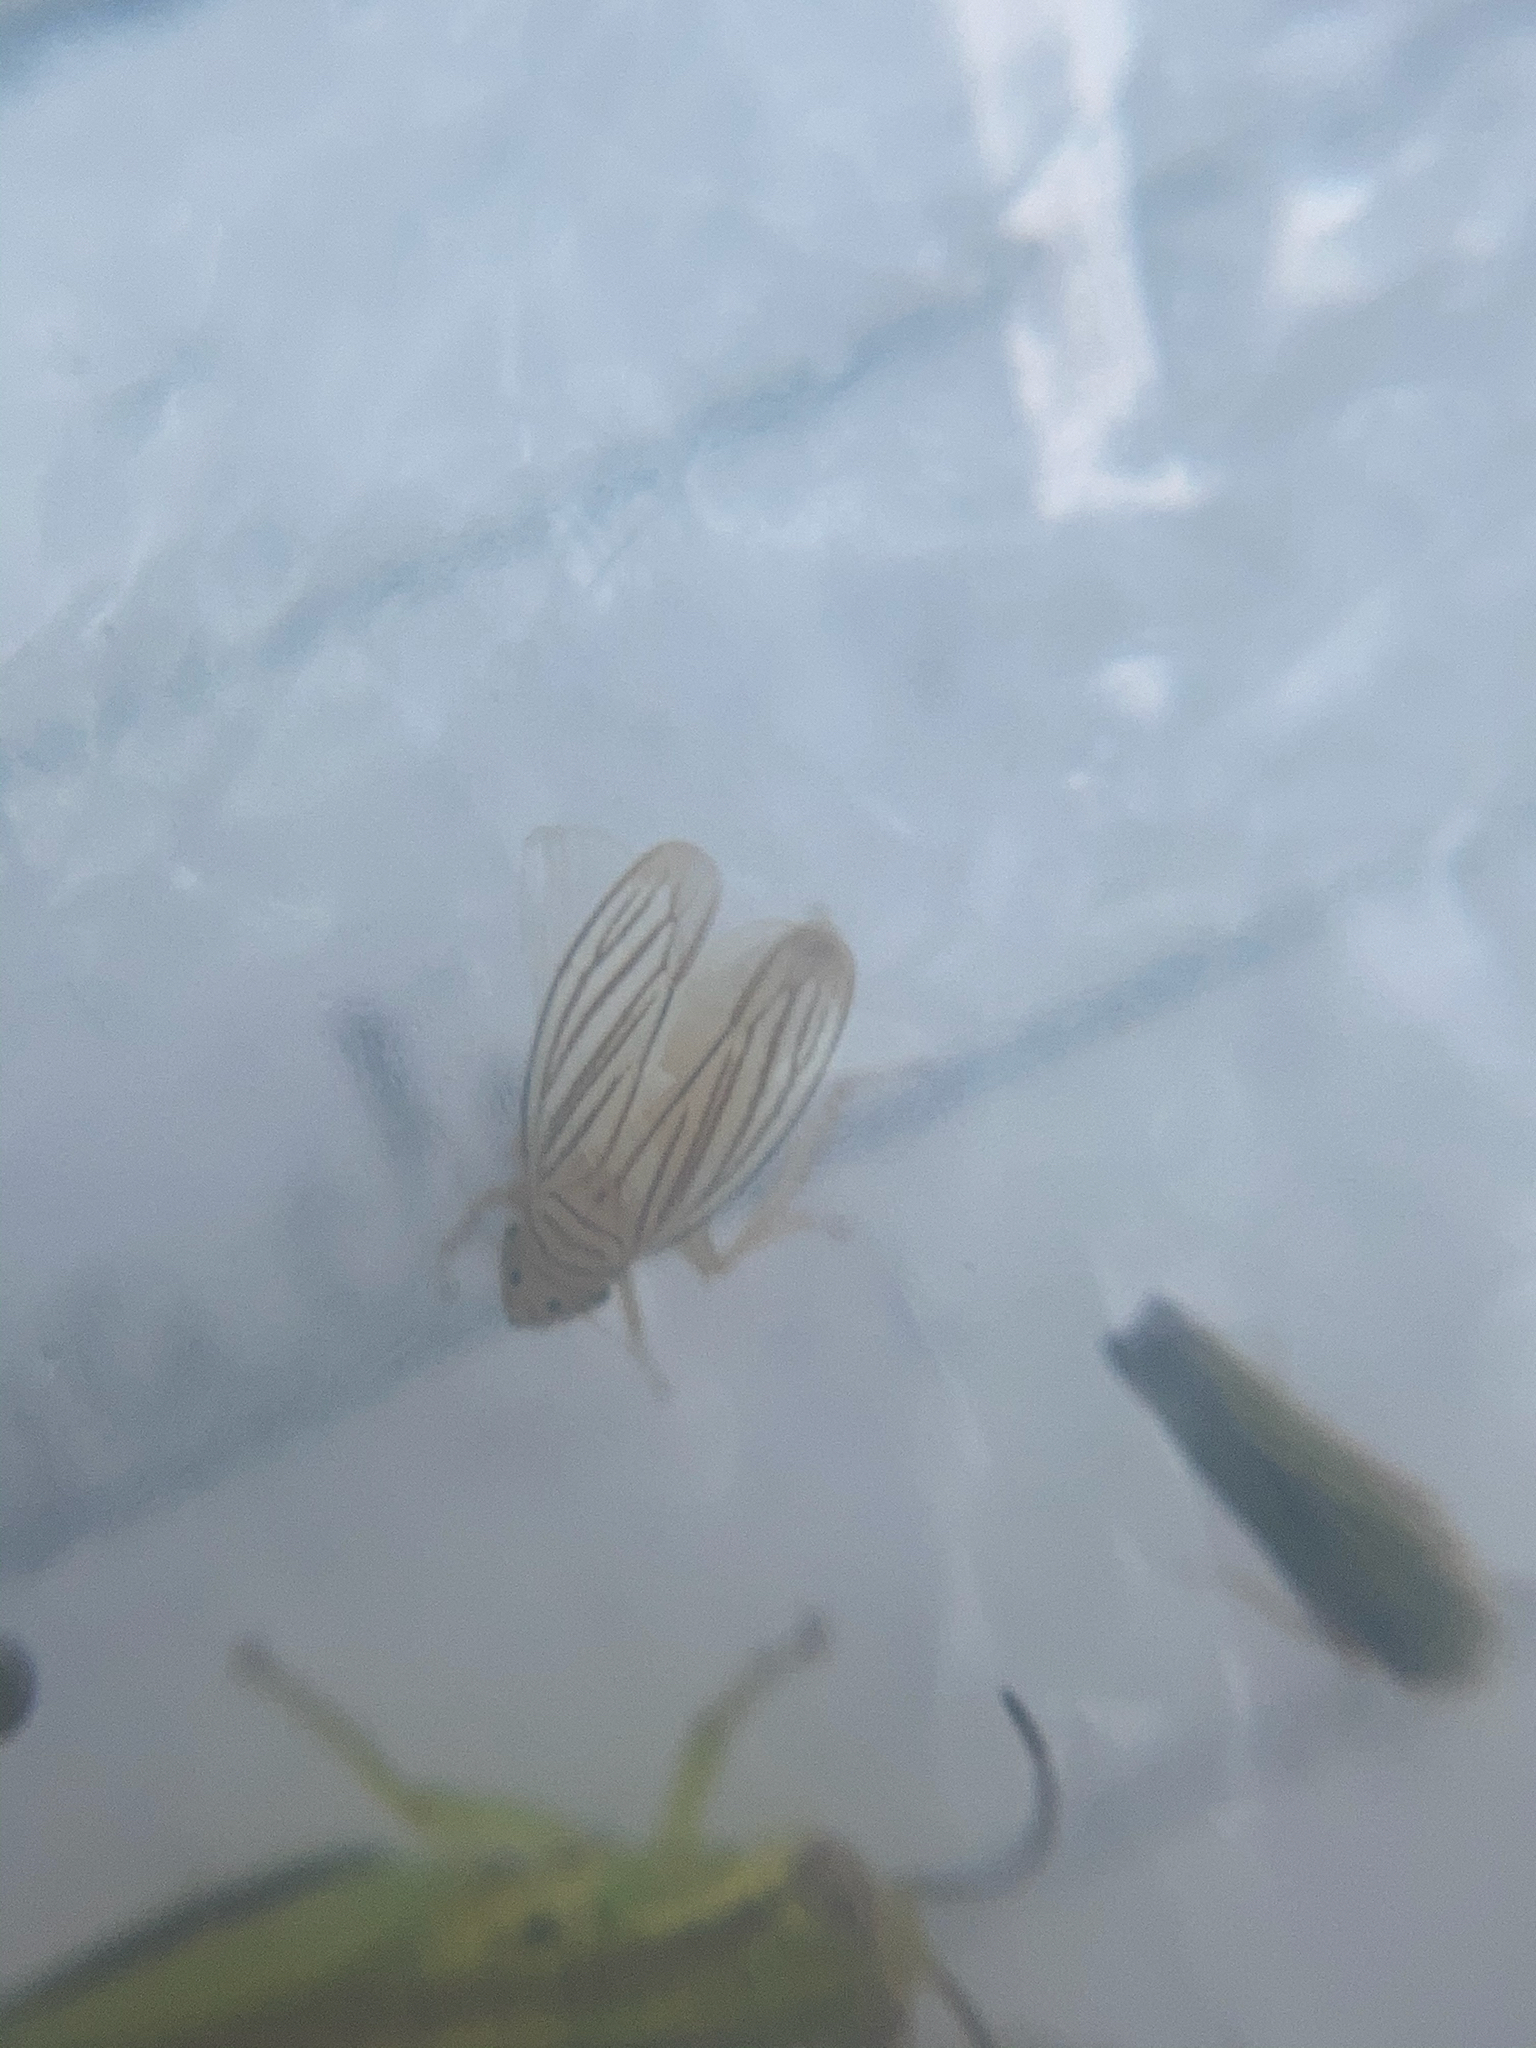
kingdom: Animalia
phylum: Arthropoda
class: Insecta
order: Hemiptera
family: Cicadellidae
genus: Provancherana
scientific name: Provancherana tripunctata
